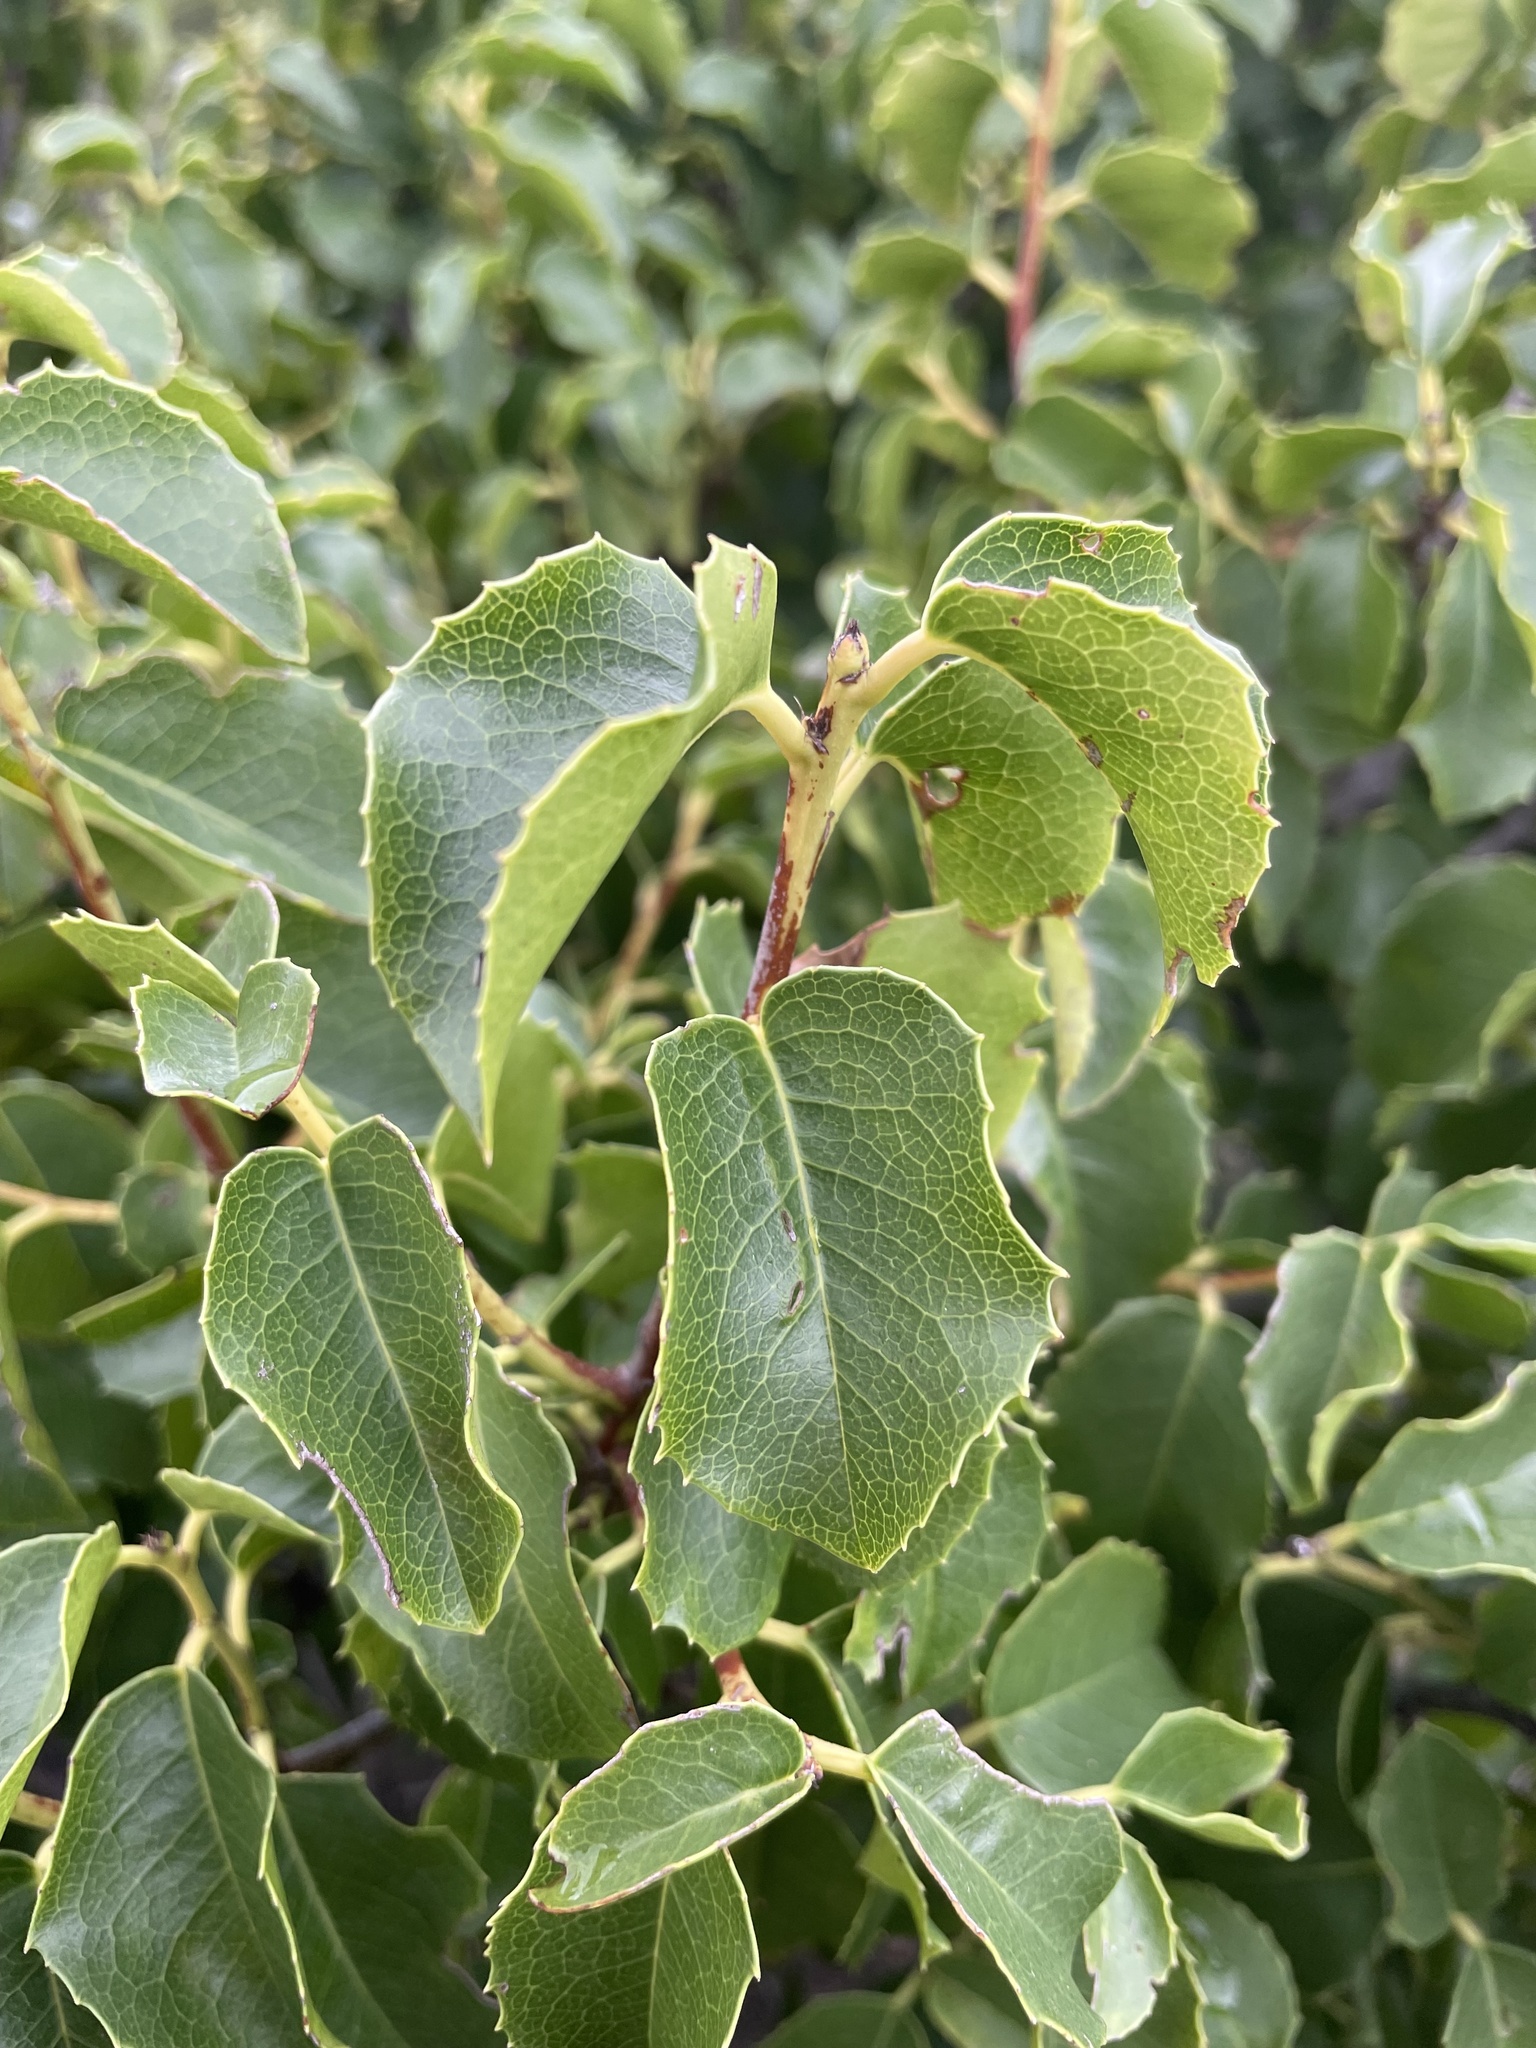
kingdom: Plantae
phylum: Tracheophyta
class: Magnoliopsida
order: Rosales
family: Rosaceae
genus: Prunus
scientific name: Prunus ilicifolia
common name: Hollyleaf cherry
